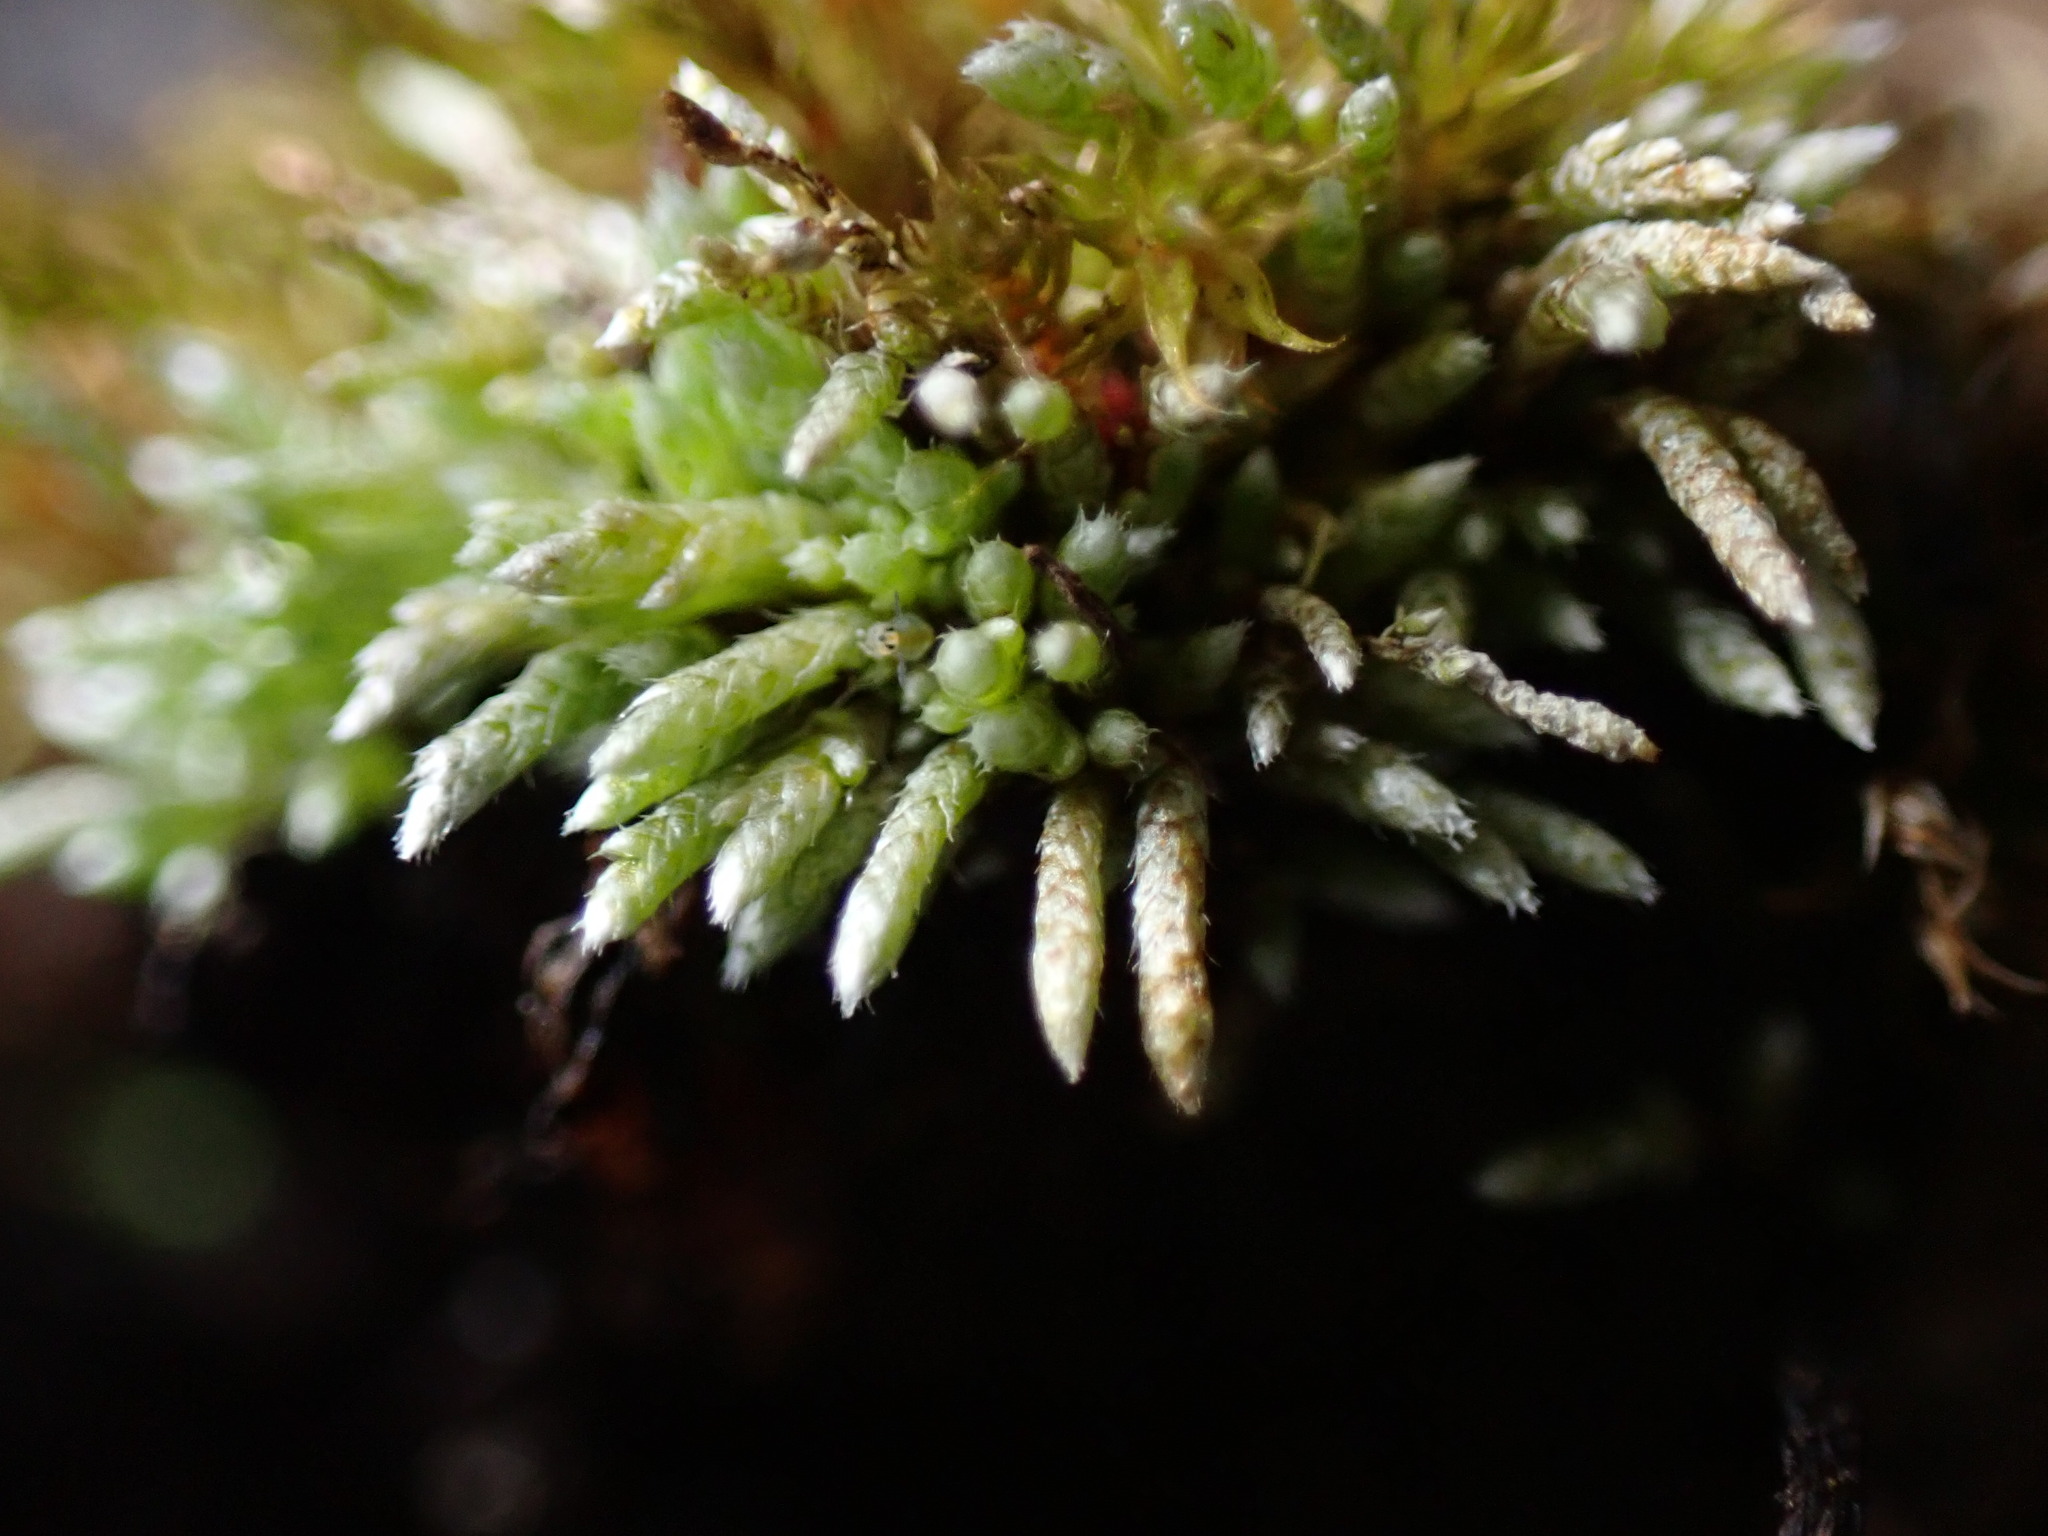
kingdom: Plantae
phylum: Bryophyta
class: Bryopsida
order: Bryales
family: Bryaceae
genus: Bryum
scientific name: Bryum argenteum
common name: Silver-moss
